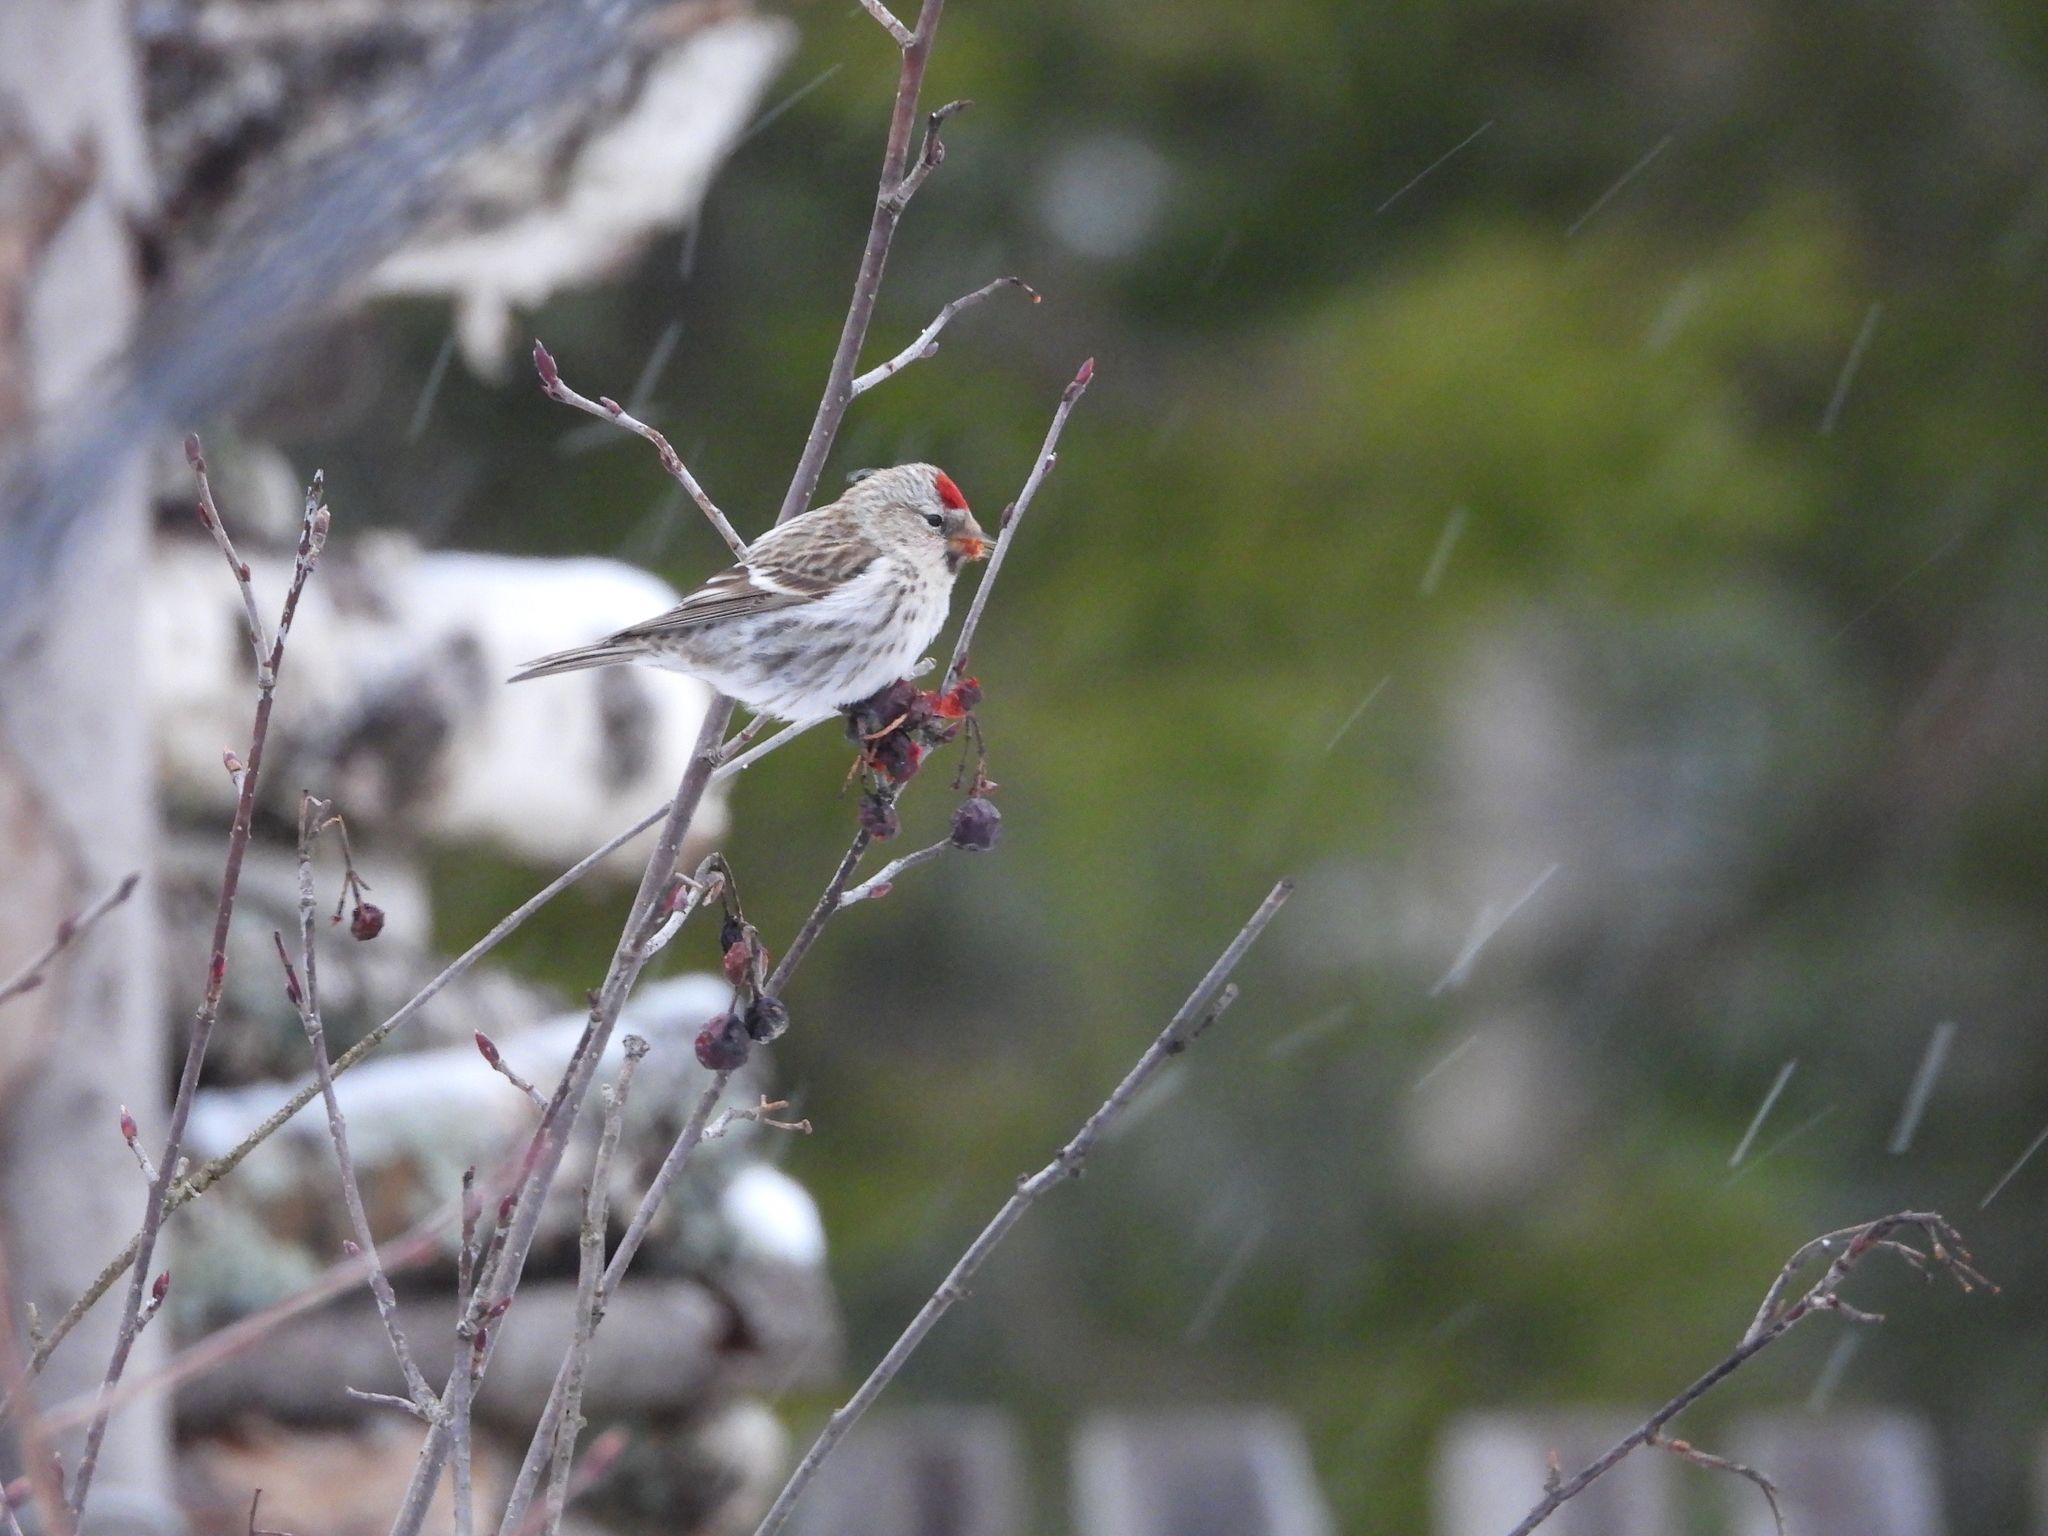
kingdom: Animalia
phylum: Chordata
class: Aves
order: Passeriformes
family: Fringillidae
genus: Acanthis
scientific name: Acanthis flammea
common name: Common redpoll
